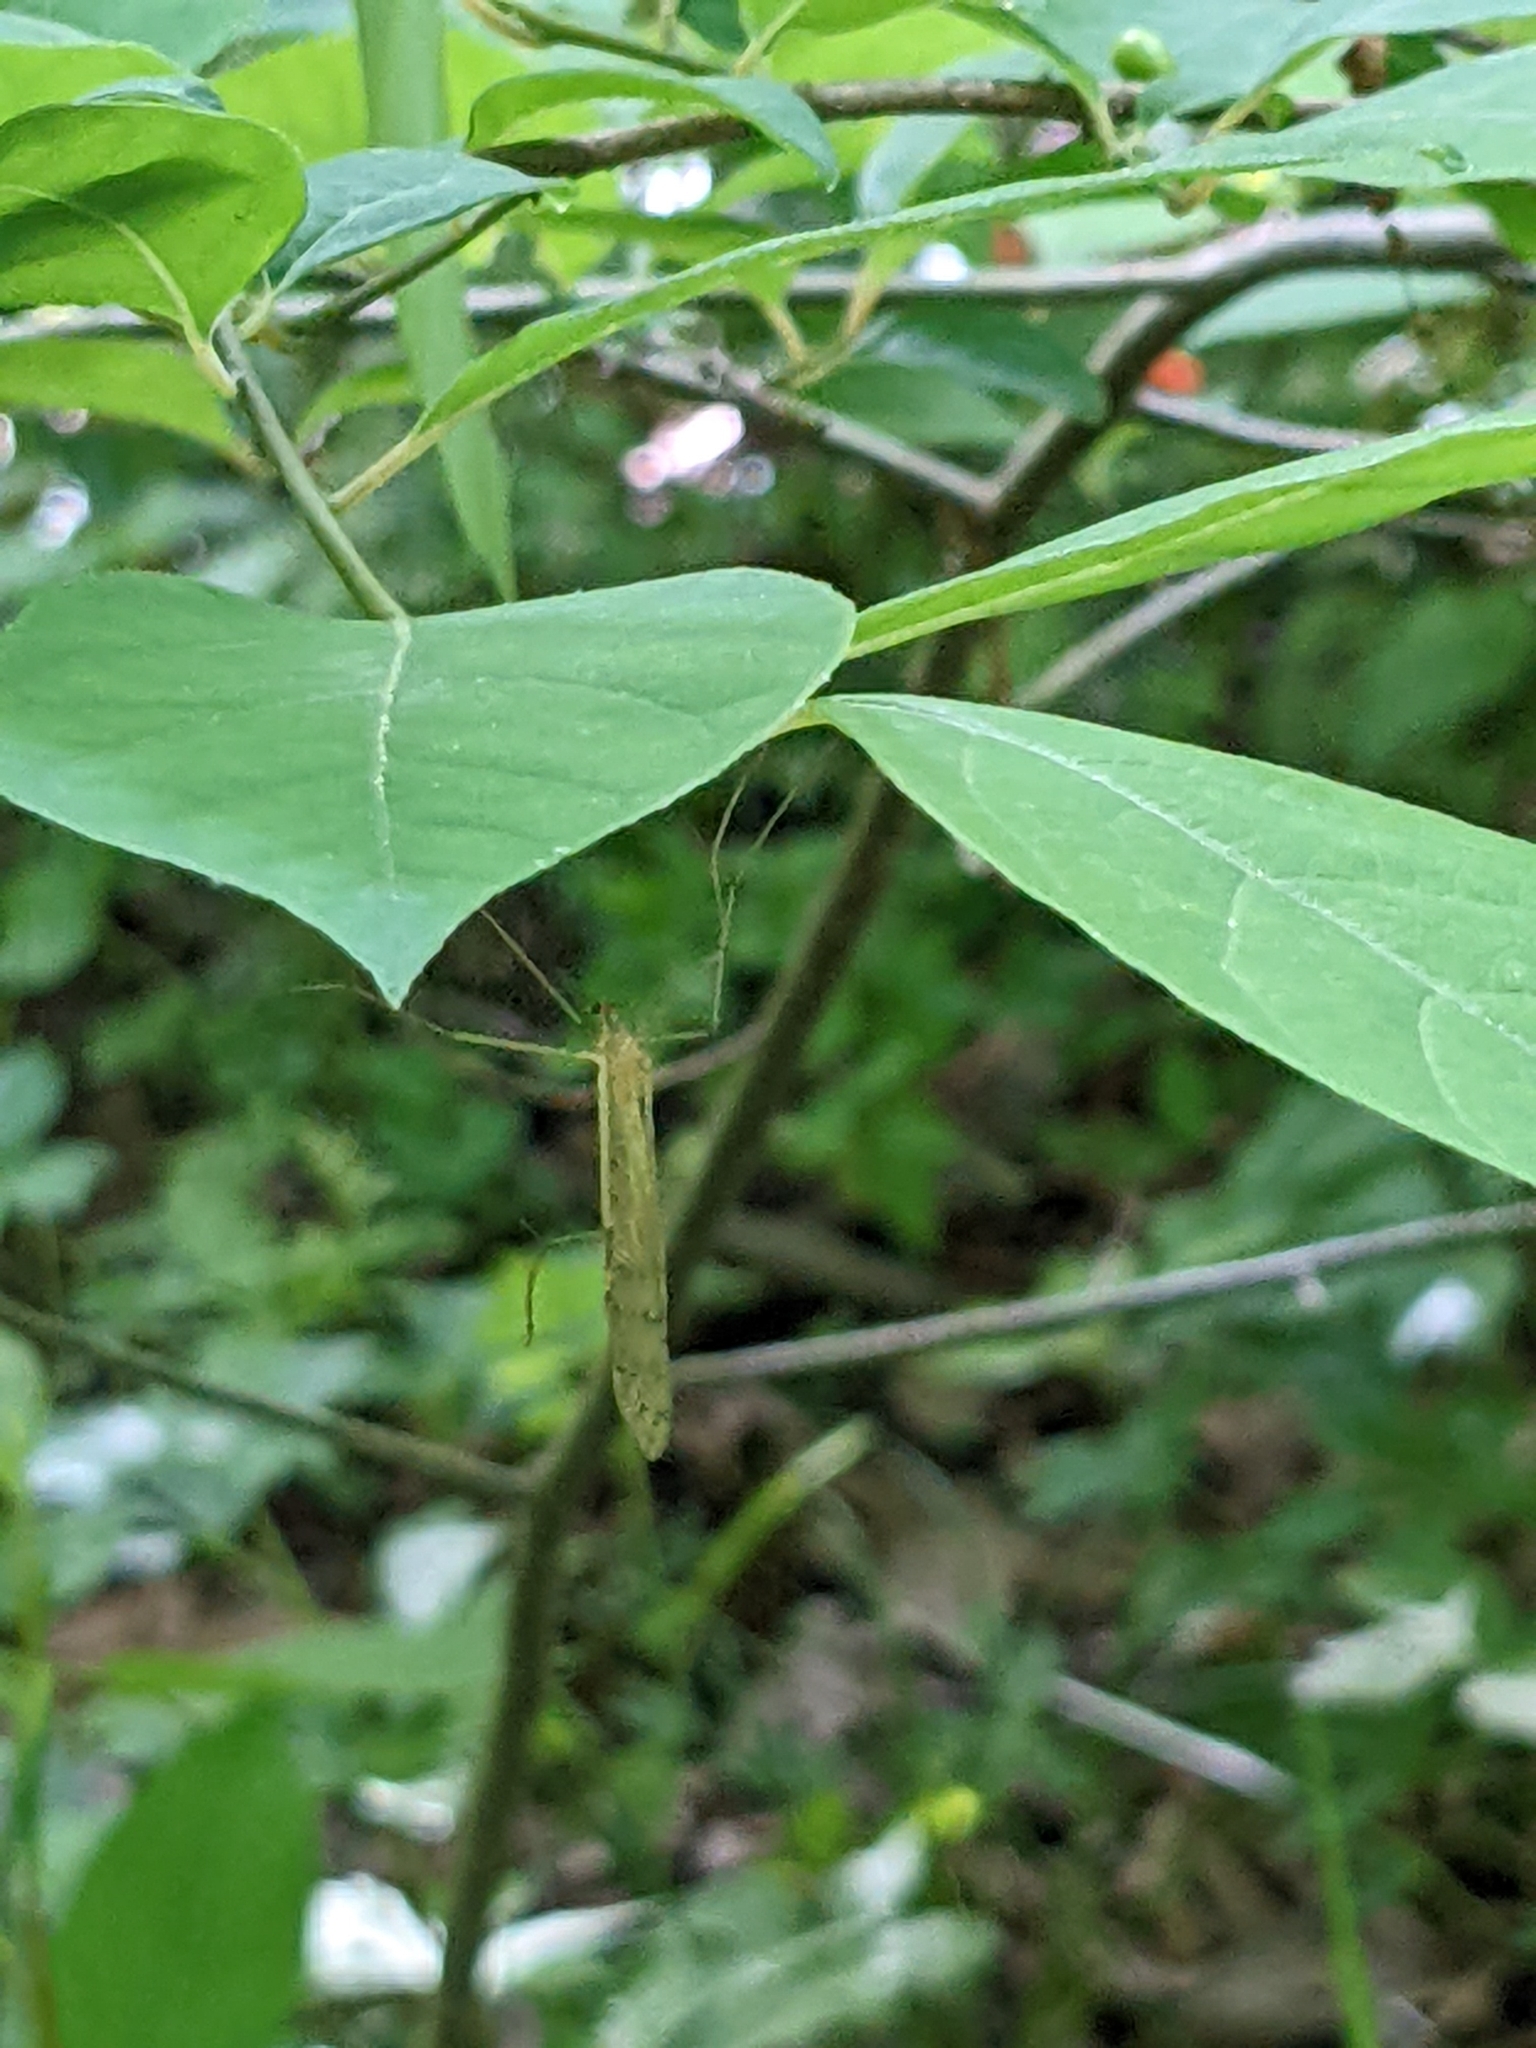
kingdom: Animalia
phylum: Arthropoda
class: Insecta
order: Mecoptera
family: Bittacidae
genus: Bittacus
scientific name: Bittacus strigosus
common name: Thin hangingfly
